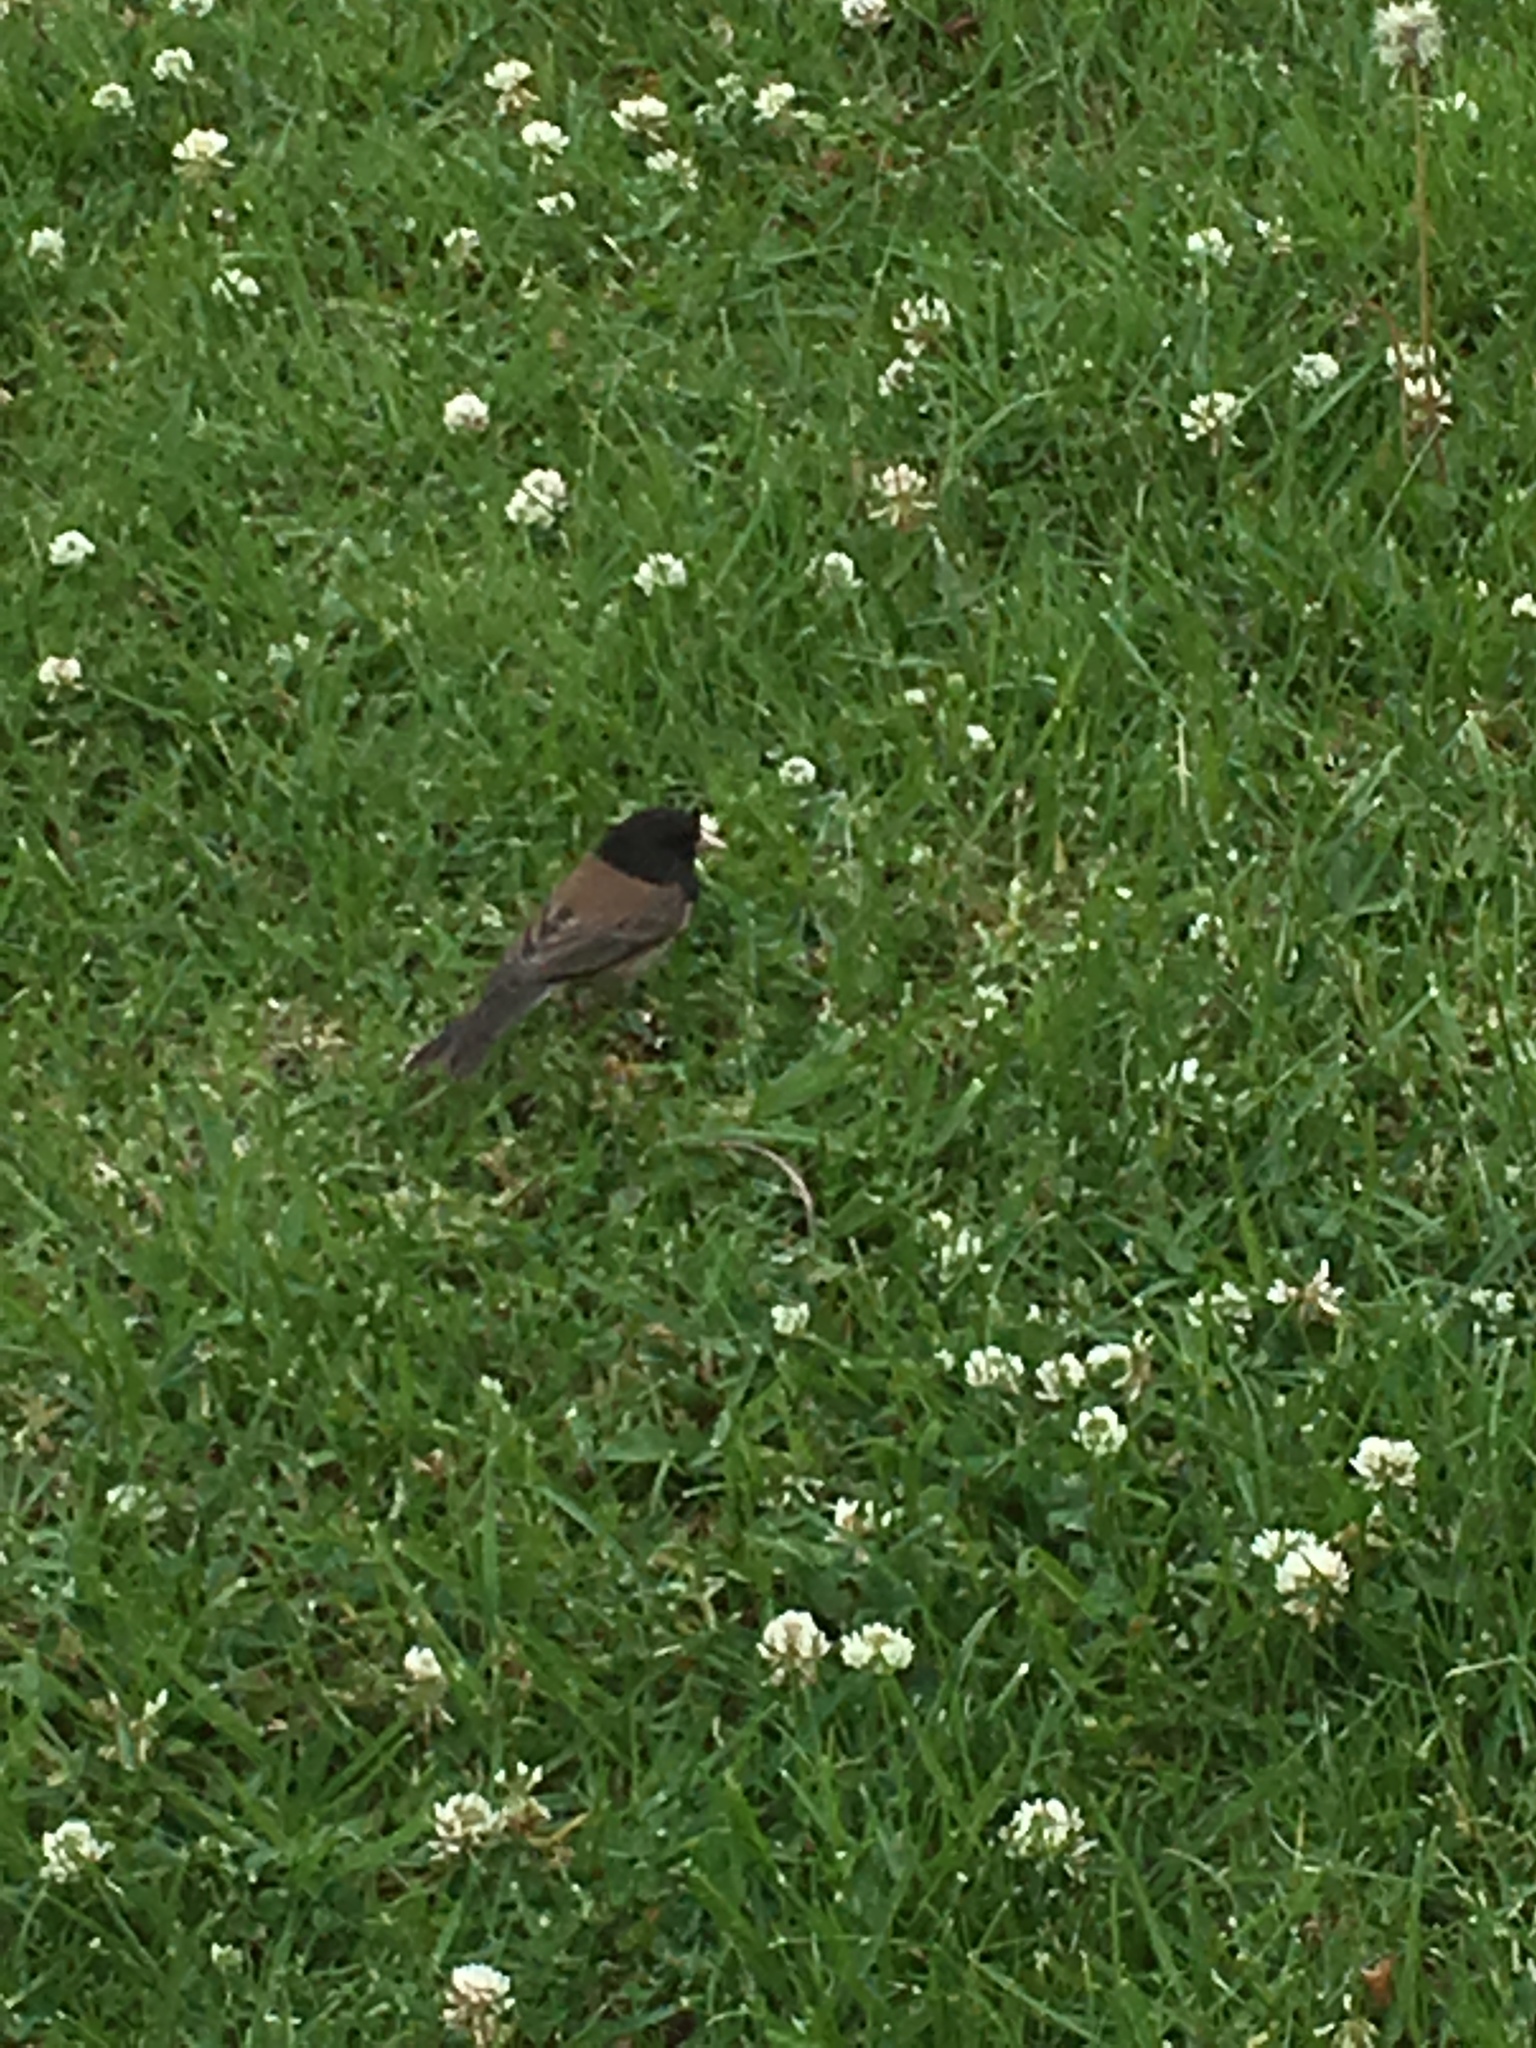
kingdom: Animalia
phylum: Chordata
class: Aves
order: Passeriformes
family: Passerellidae
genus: Junco
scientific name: Junco hyemalis
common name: Dark-eyed junco
